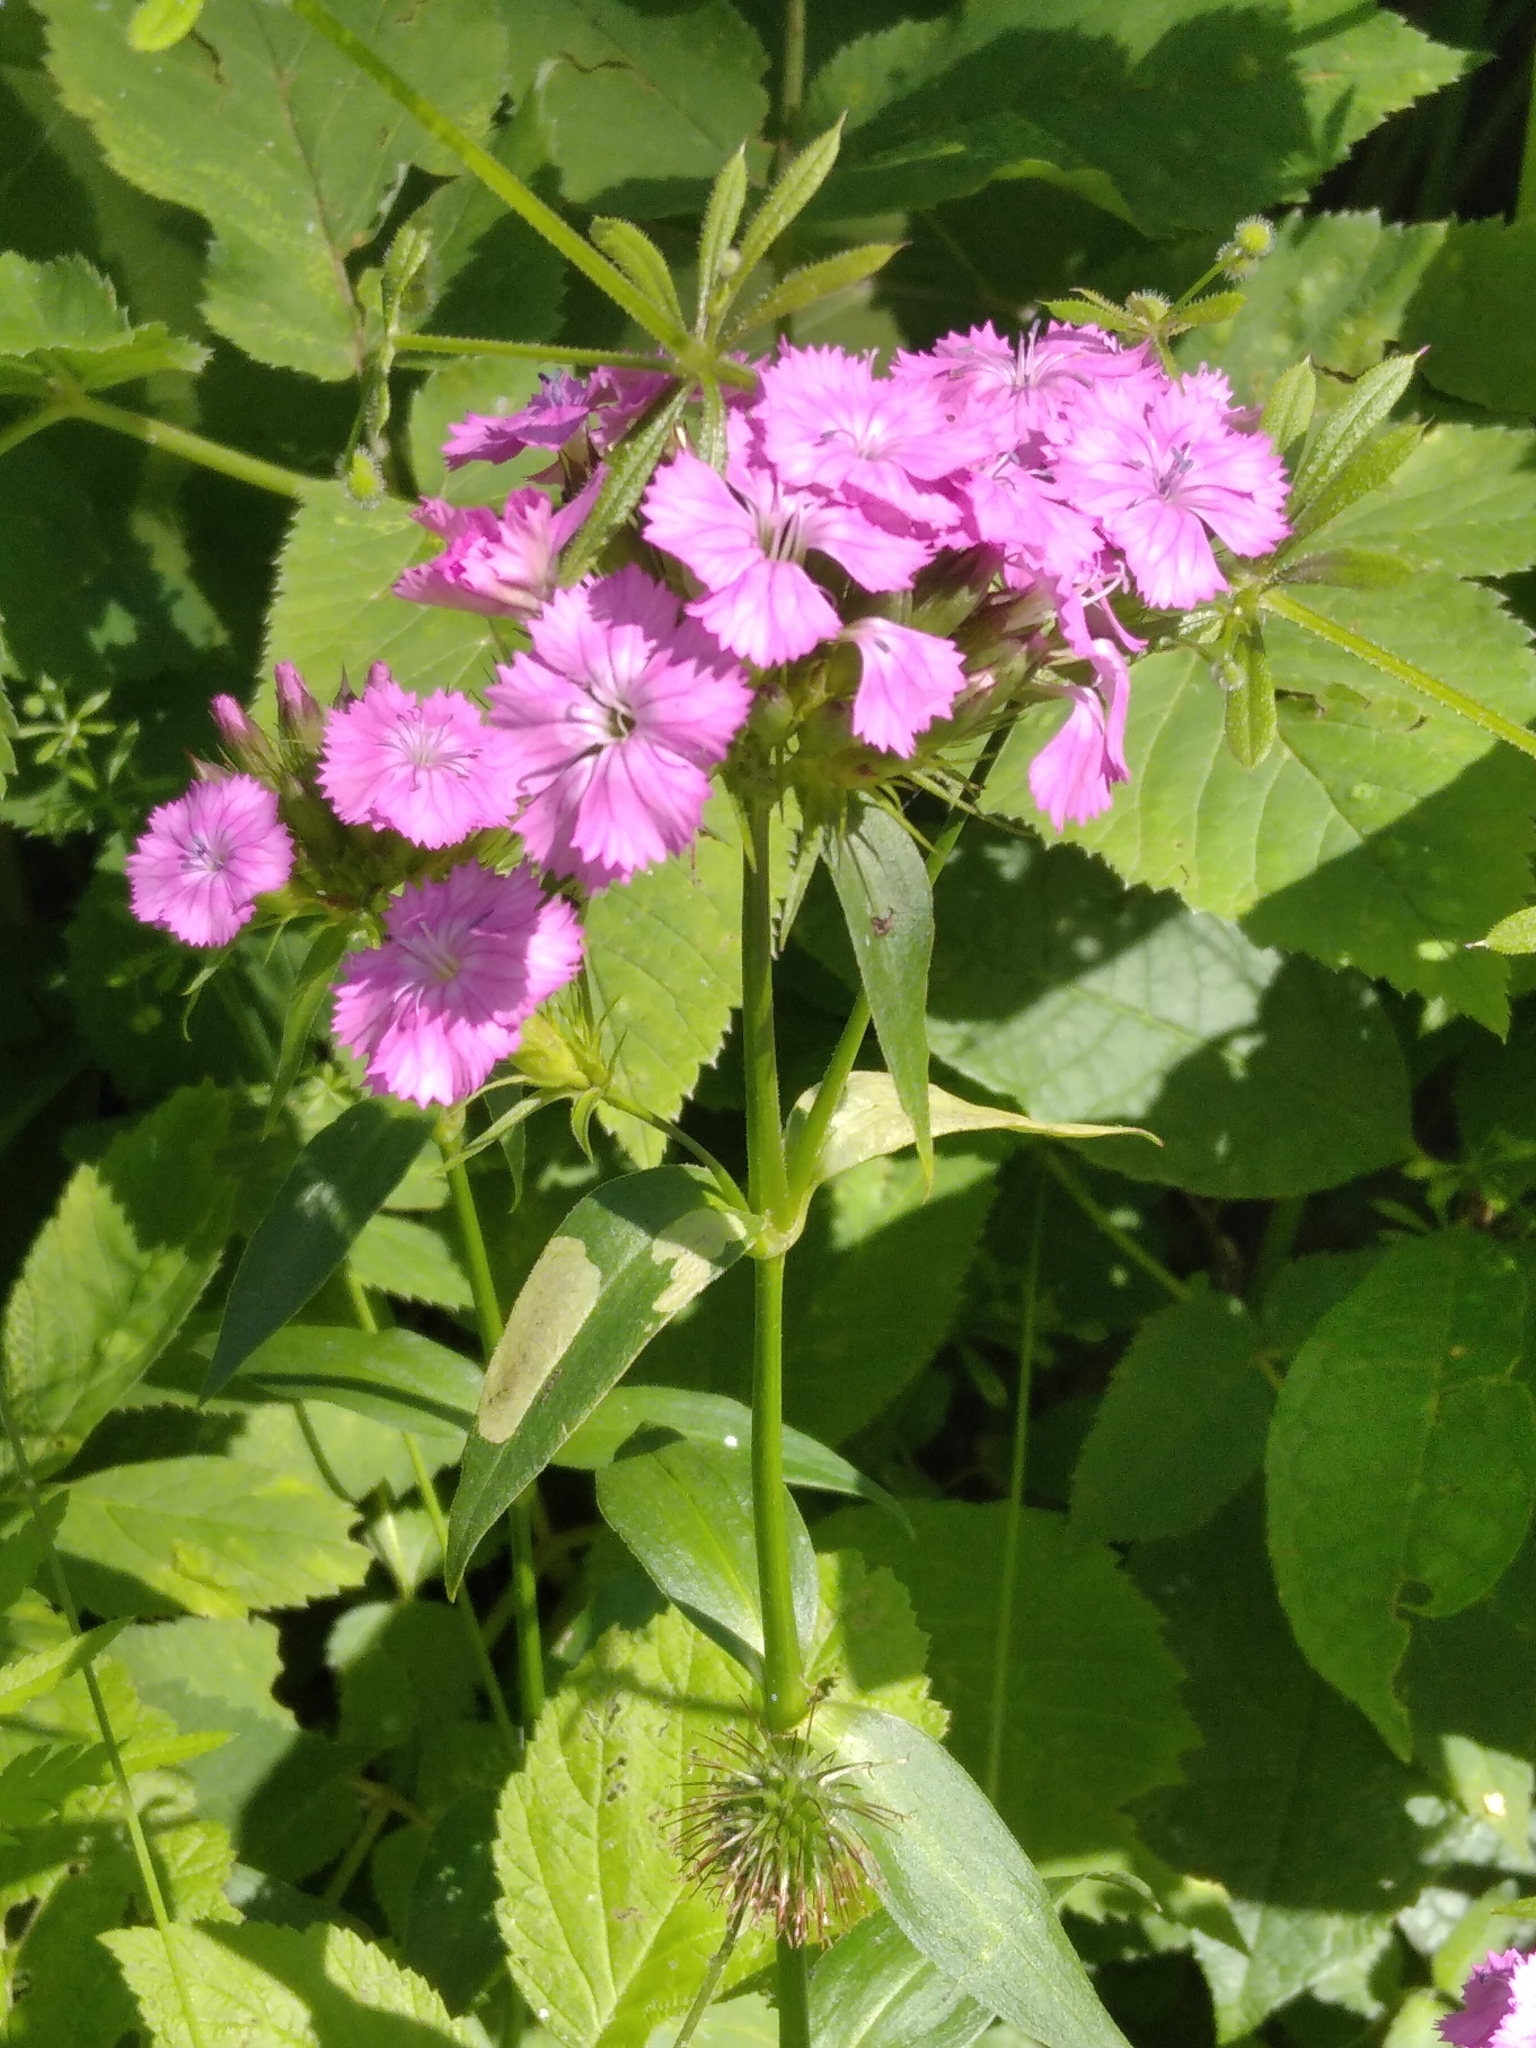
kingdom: Plantae
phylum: Tracheophyta
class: Magnoliopsida
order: Caryophyllales
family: Caryophyllaceae
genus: Dianthus
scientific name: Dianthus barbatus
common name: Sweet-william
